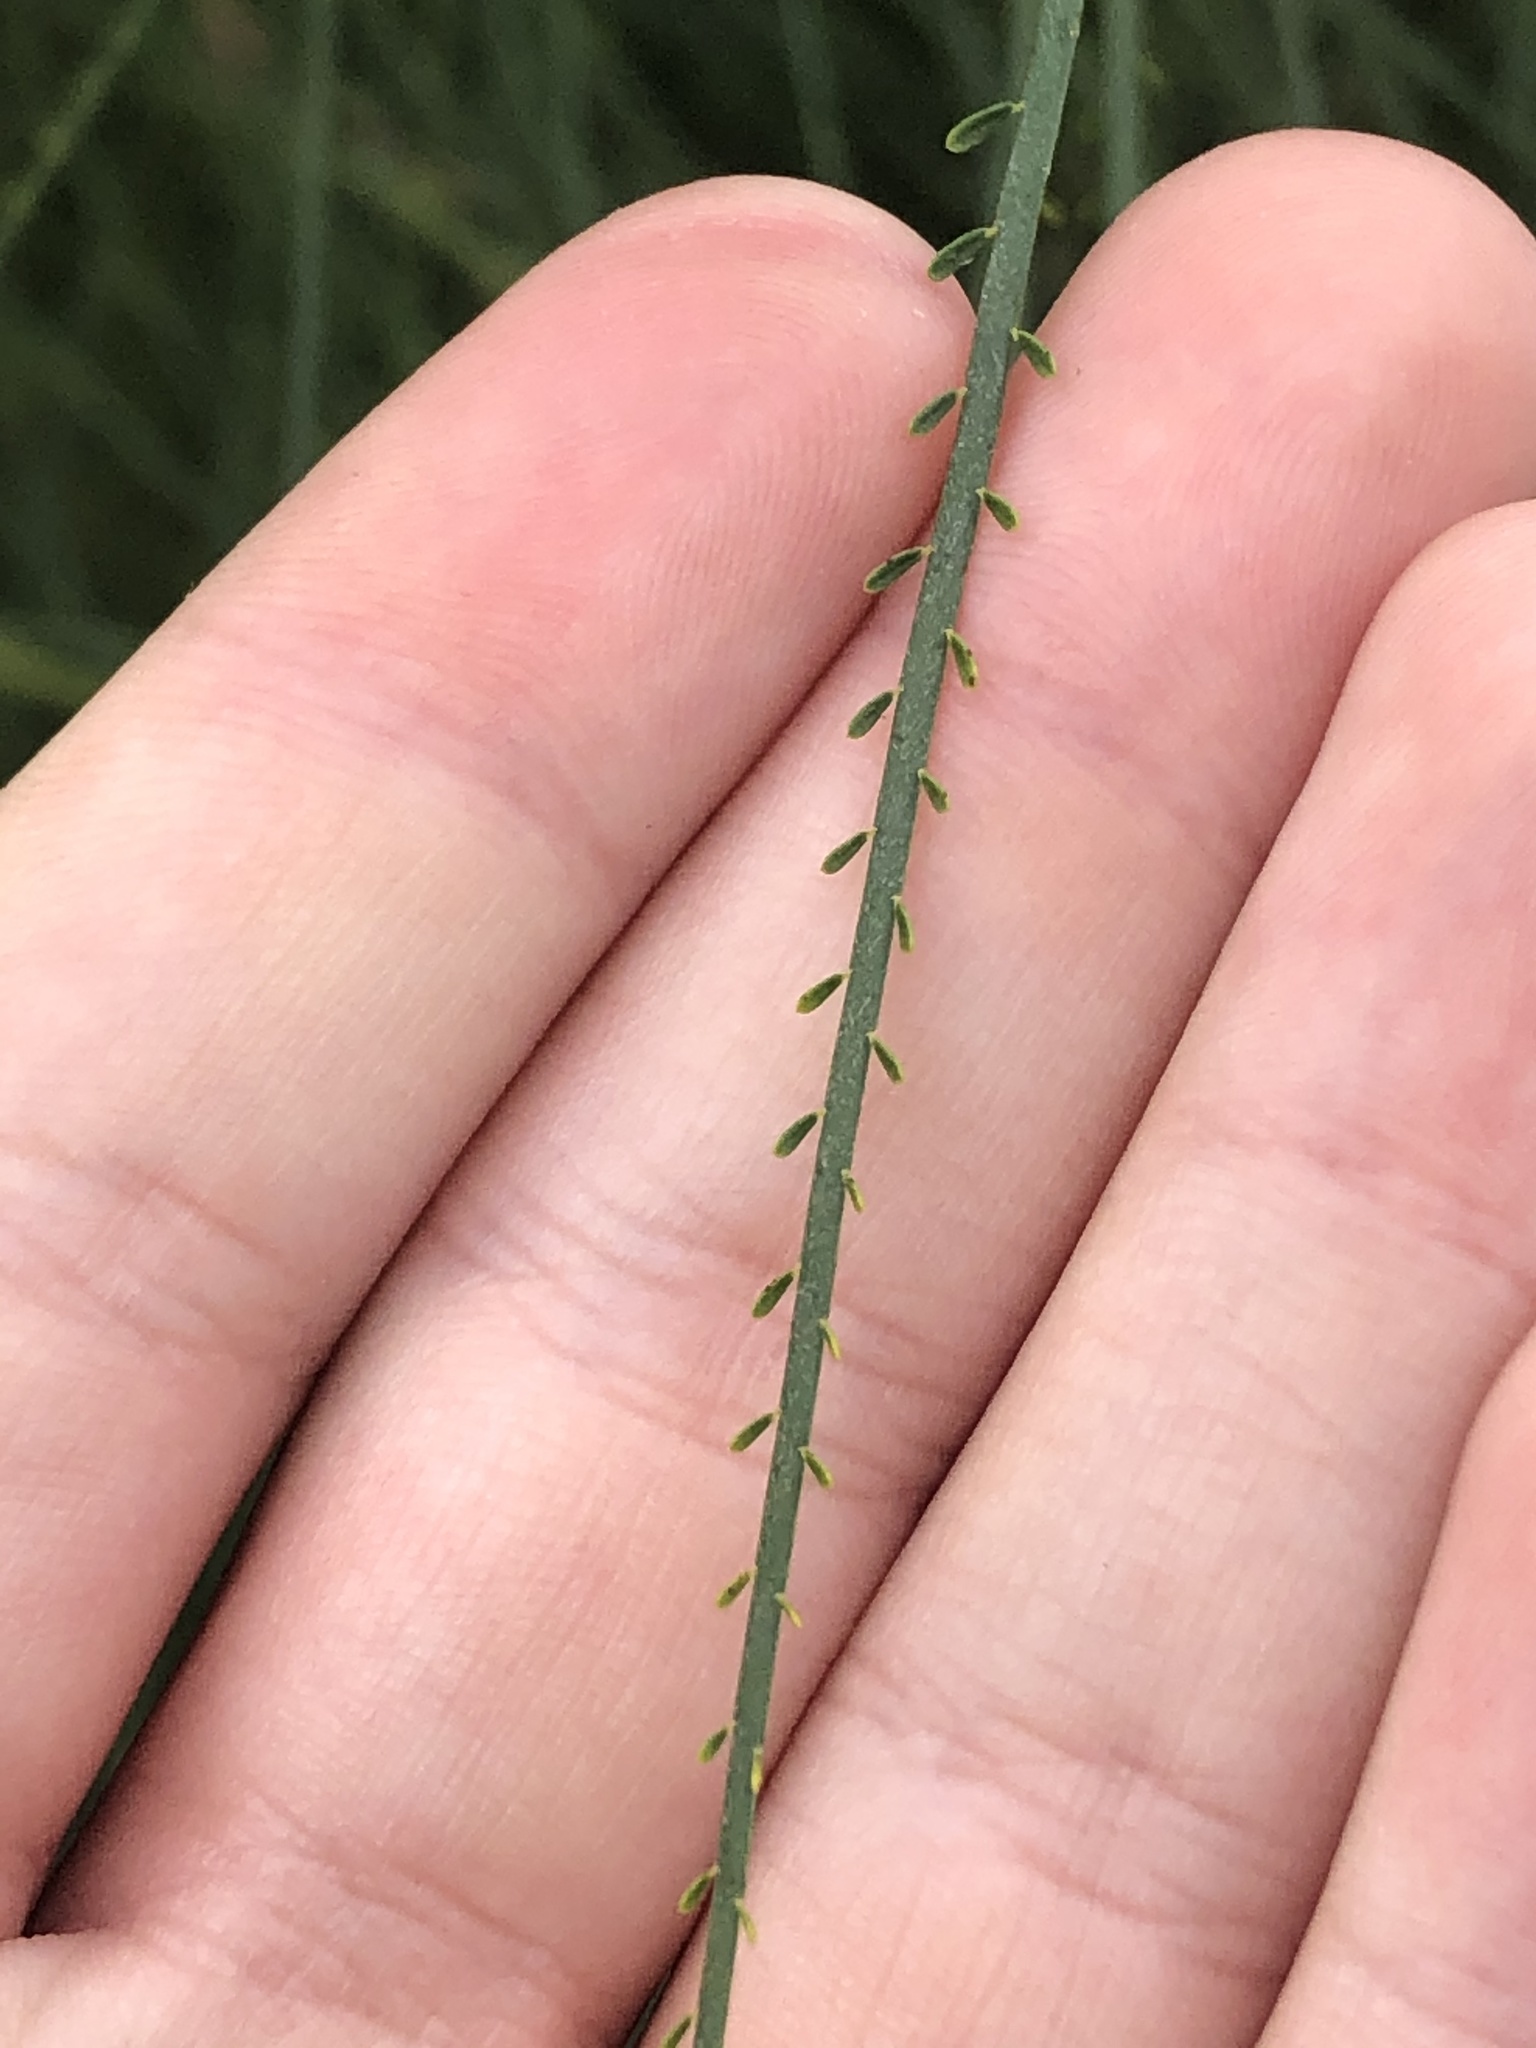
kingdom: Plantae
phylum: Tracheophyta
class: Magnoliopsida
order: Fabales
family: Fabaceae
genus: Parkinsonia
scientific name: Parkinsonia aculeata
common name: Jerusalem thorn
